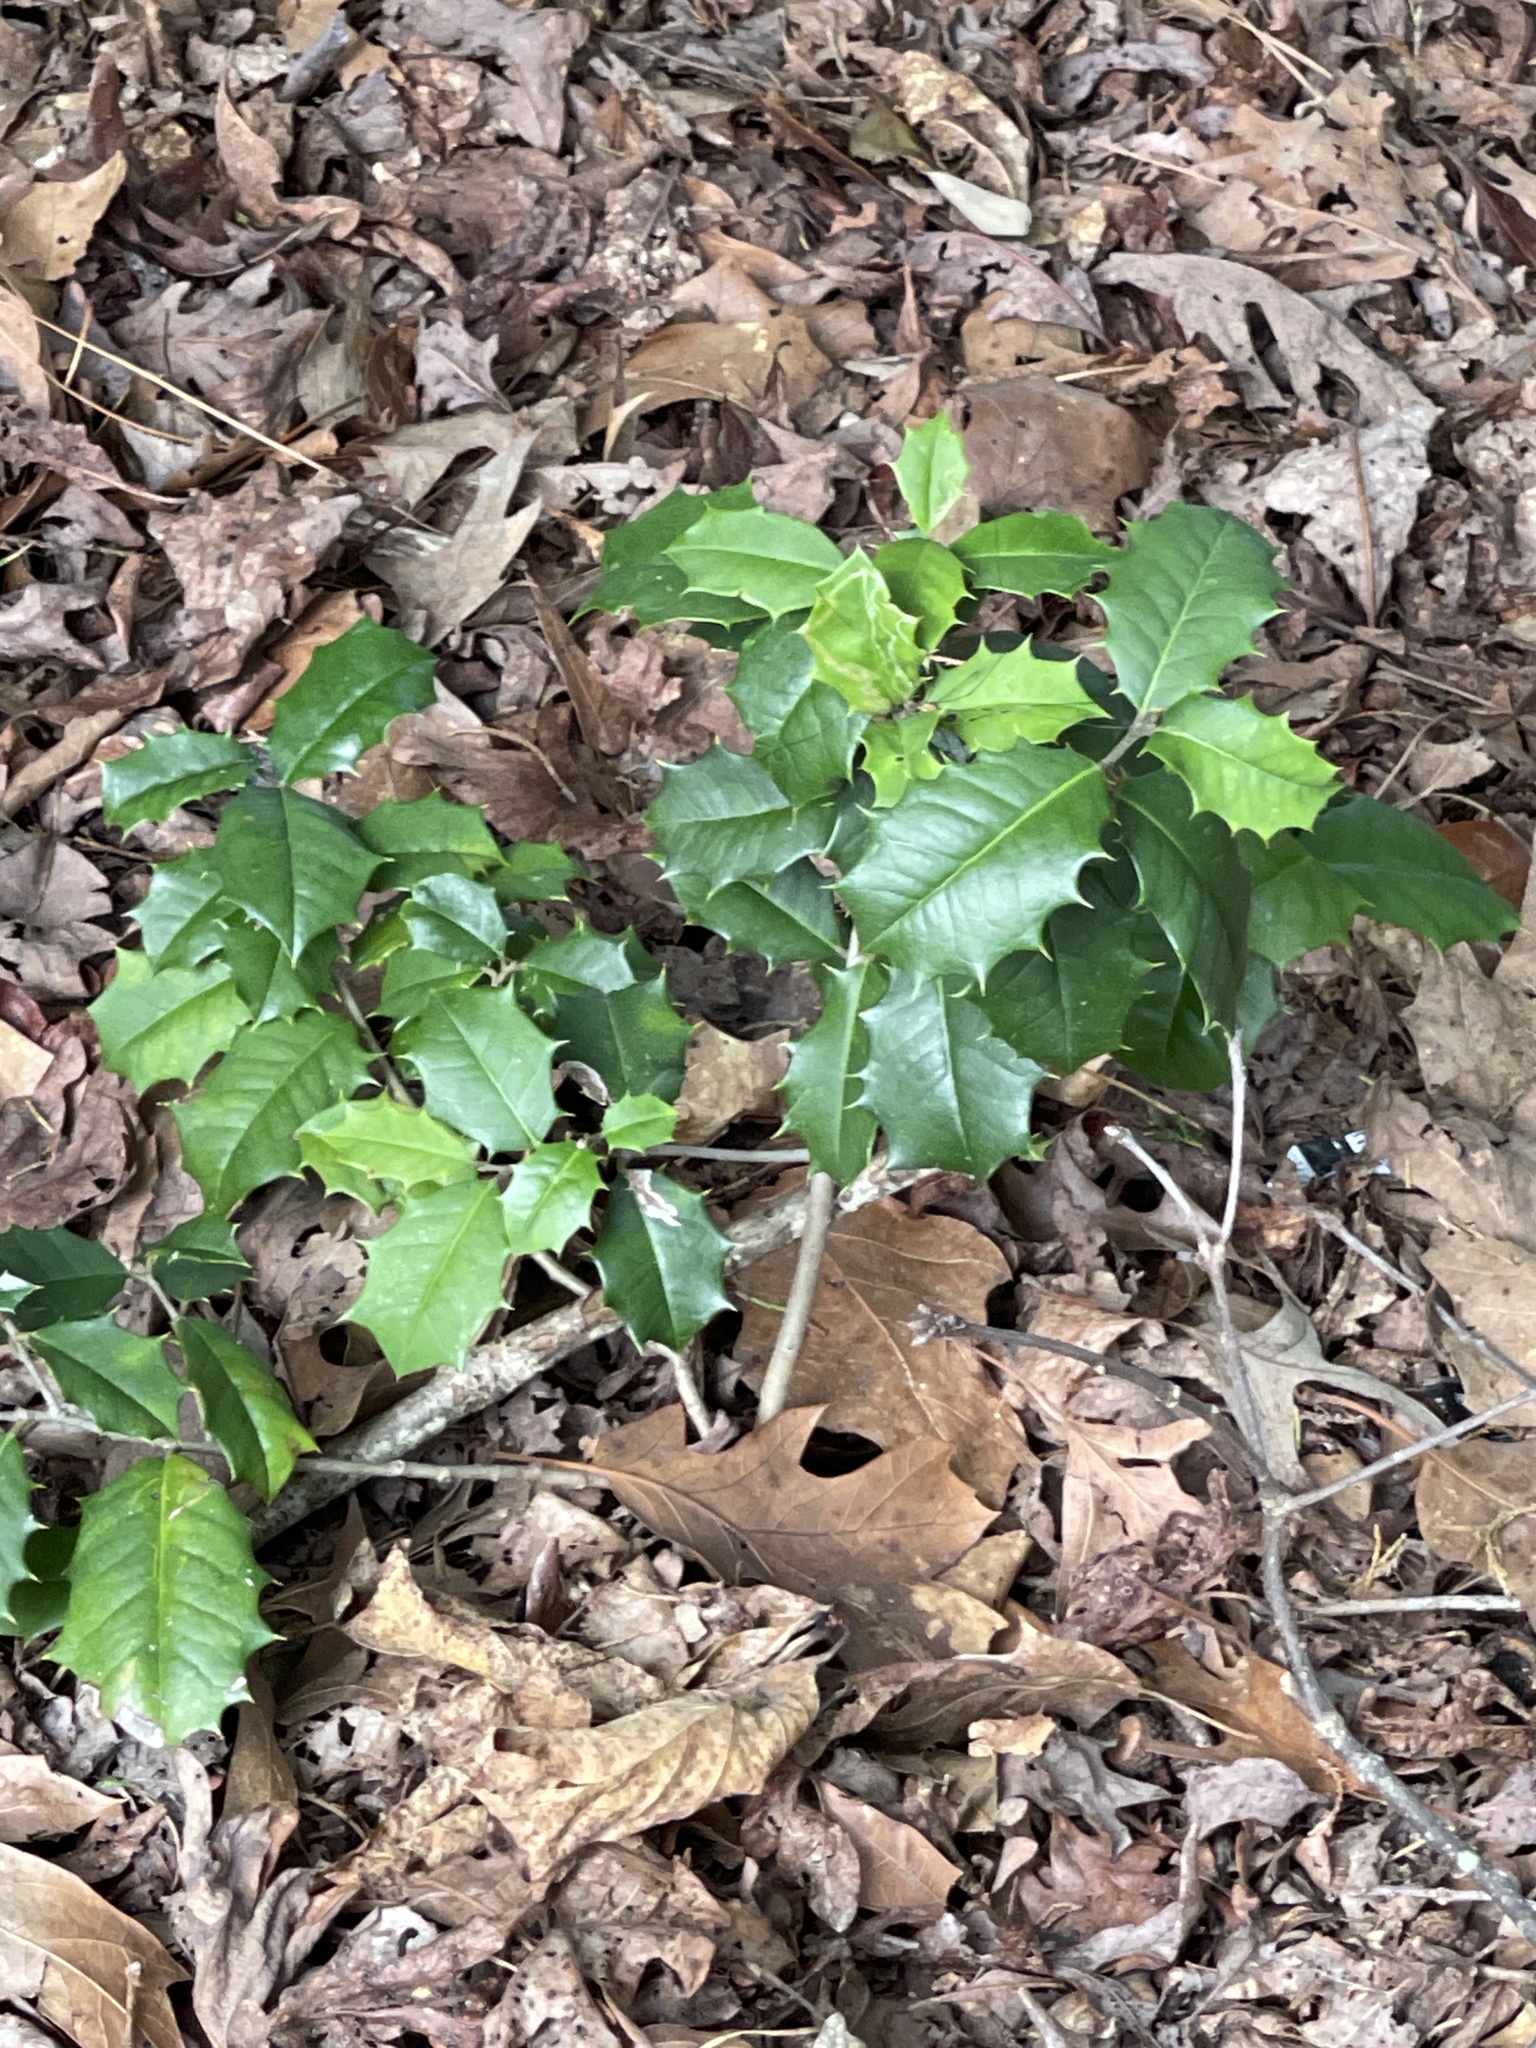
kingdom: Plantae
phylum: Tracheophyta
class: Magnoliopsida
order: Aquifoliales
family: Aquifoliaceae
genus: Ilex
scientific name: Ilex opaca
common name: American holly
